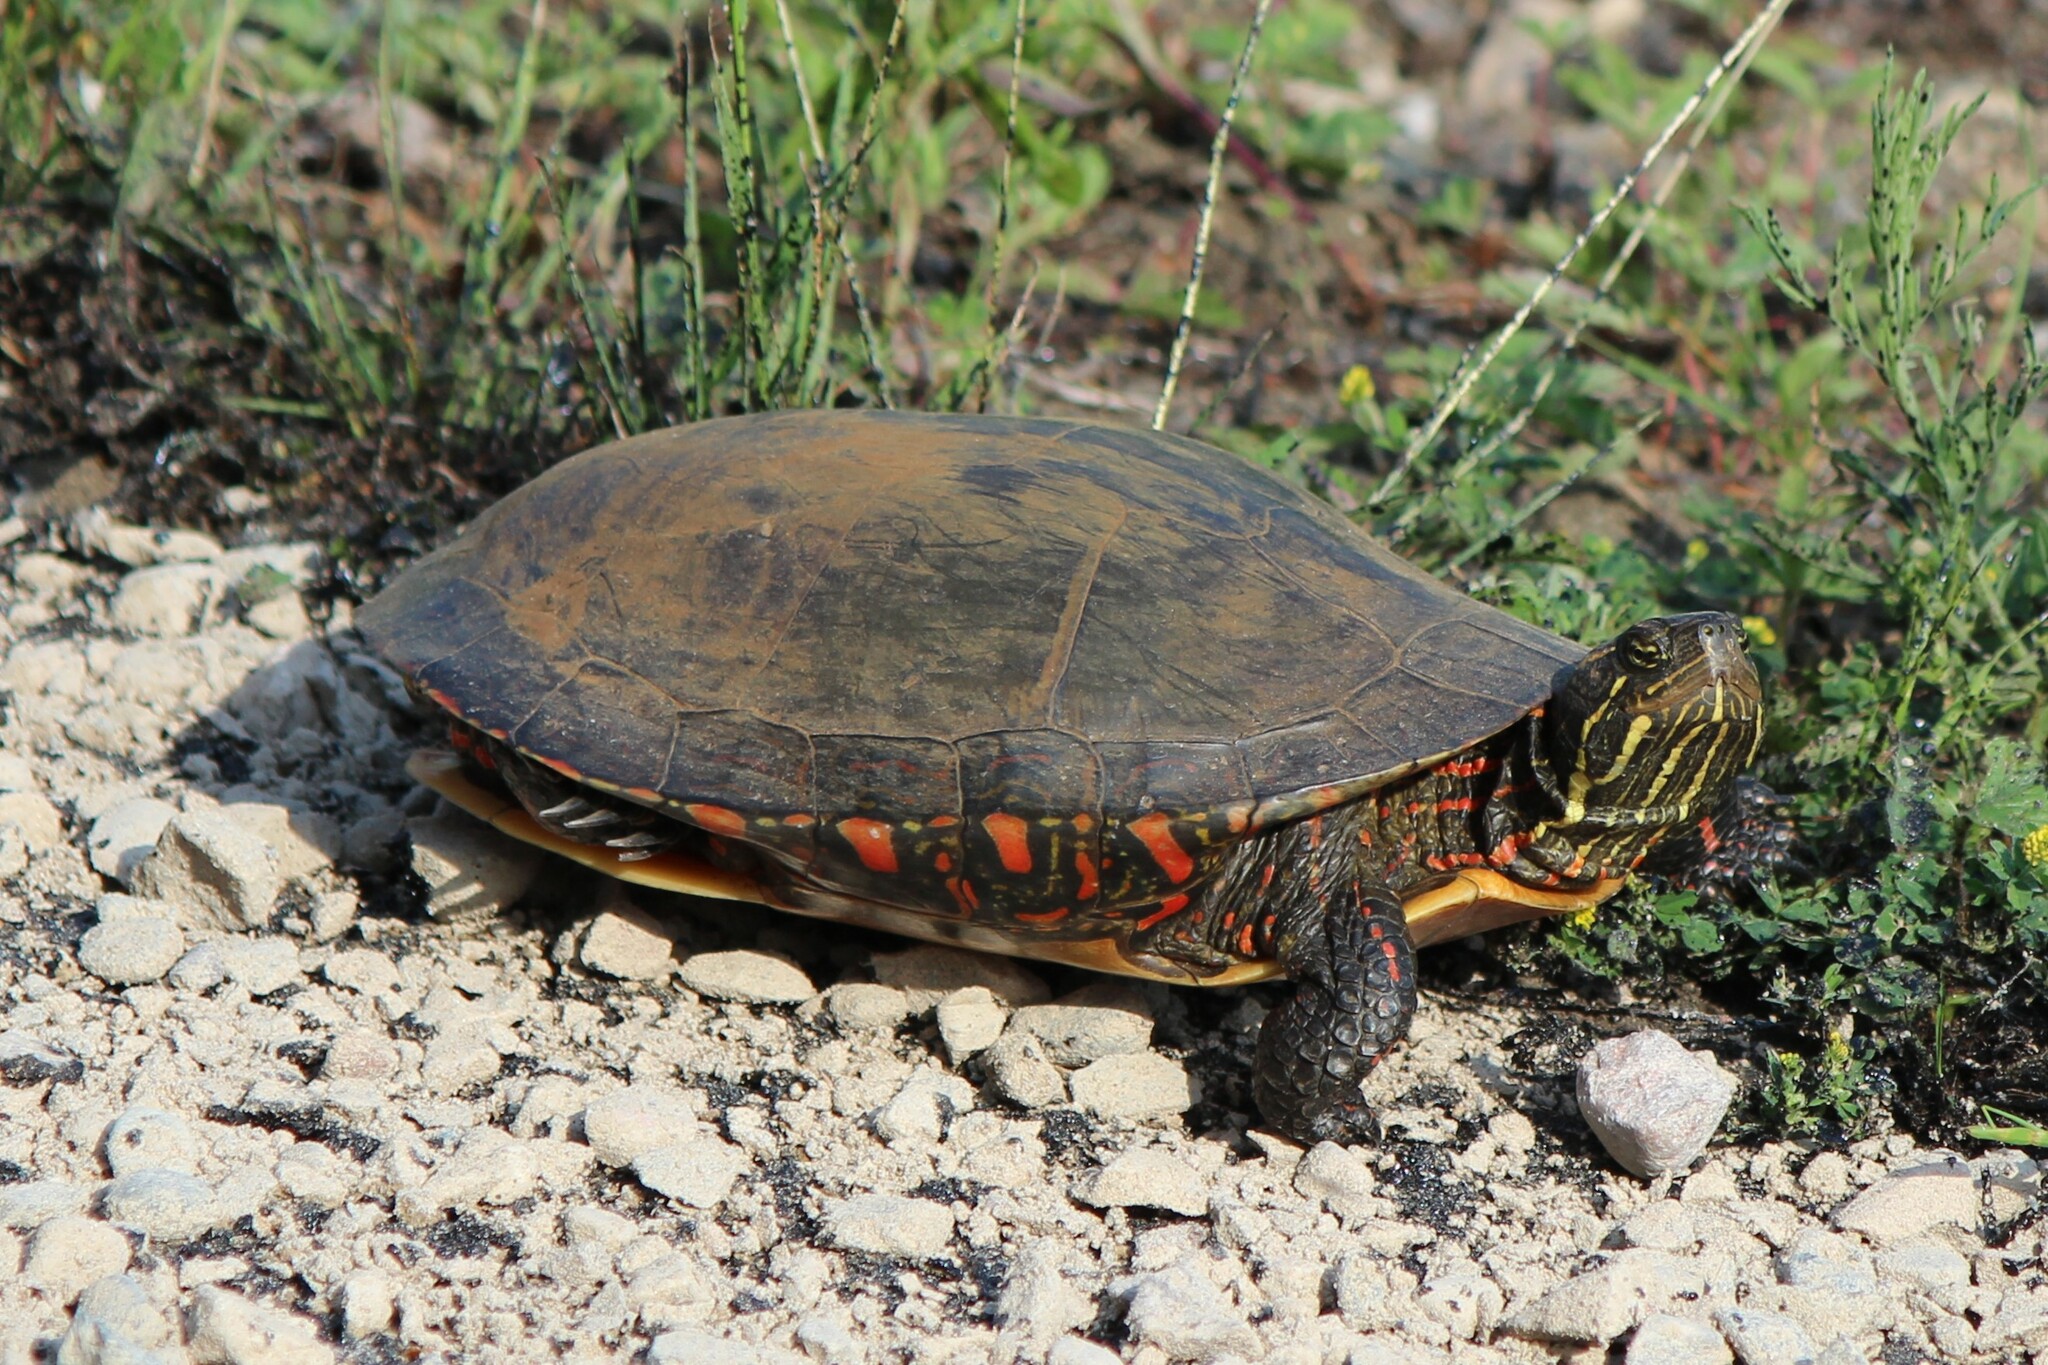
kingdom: Animalia
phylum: Chordata
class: Testudines
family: Emydidae
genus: Chrysemys
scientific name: Chrysemys picta
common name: Painted turtle
